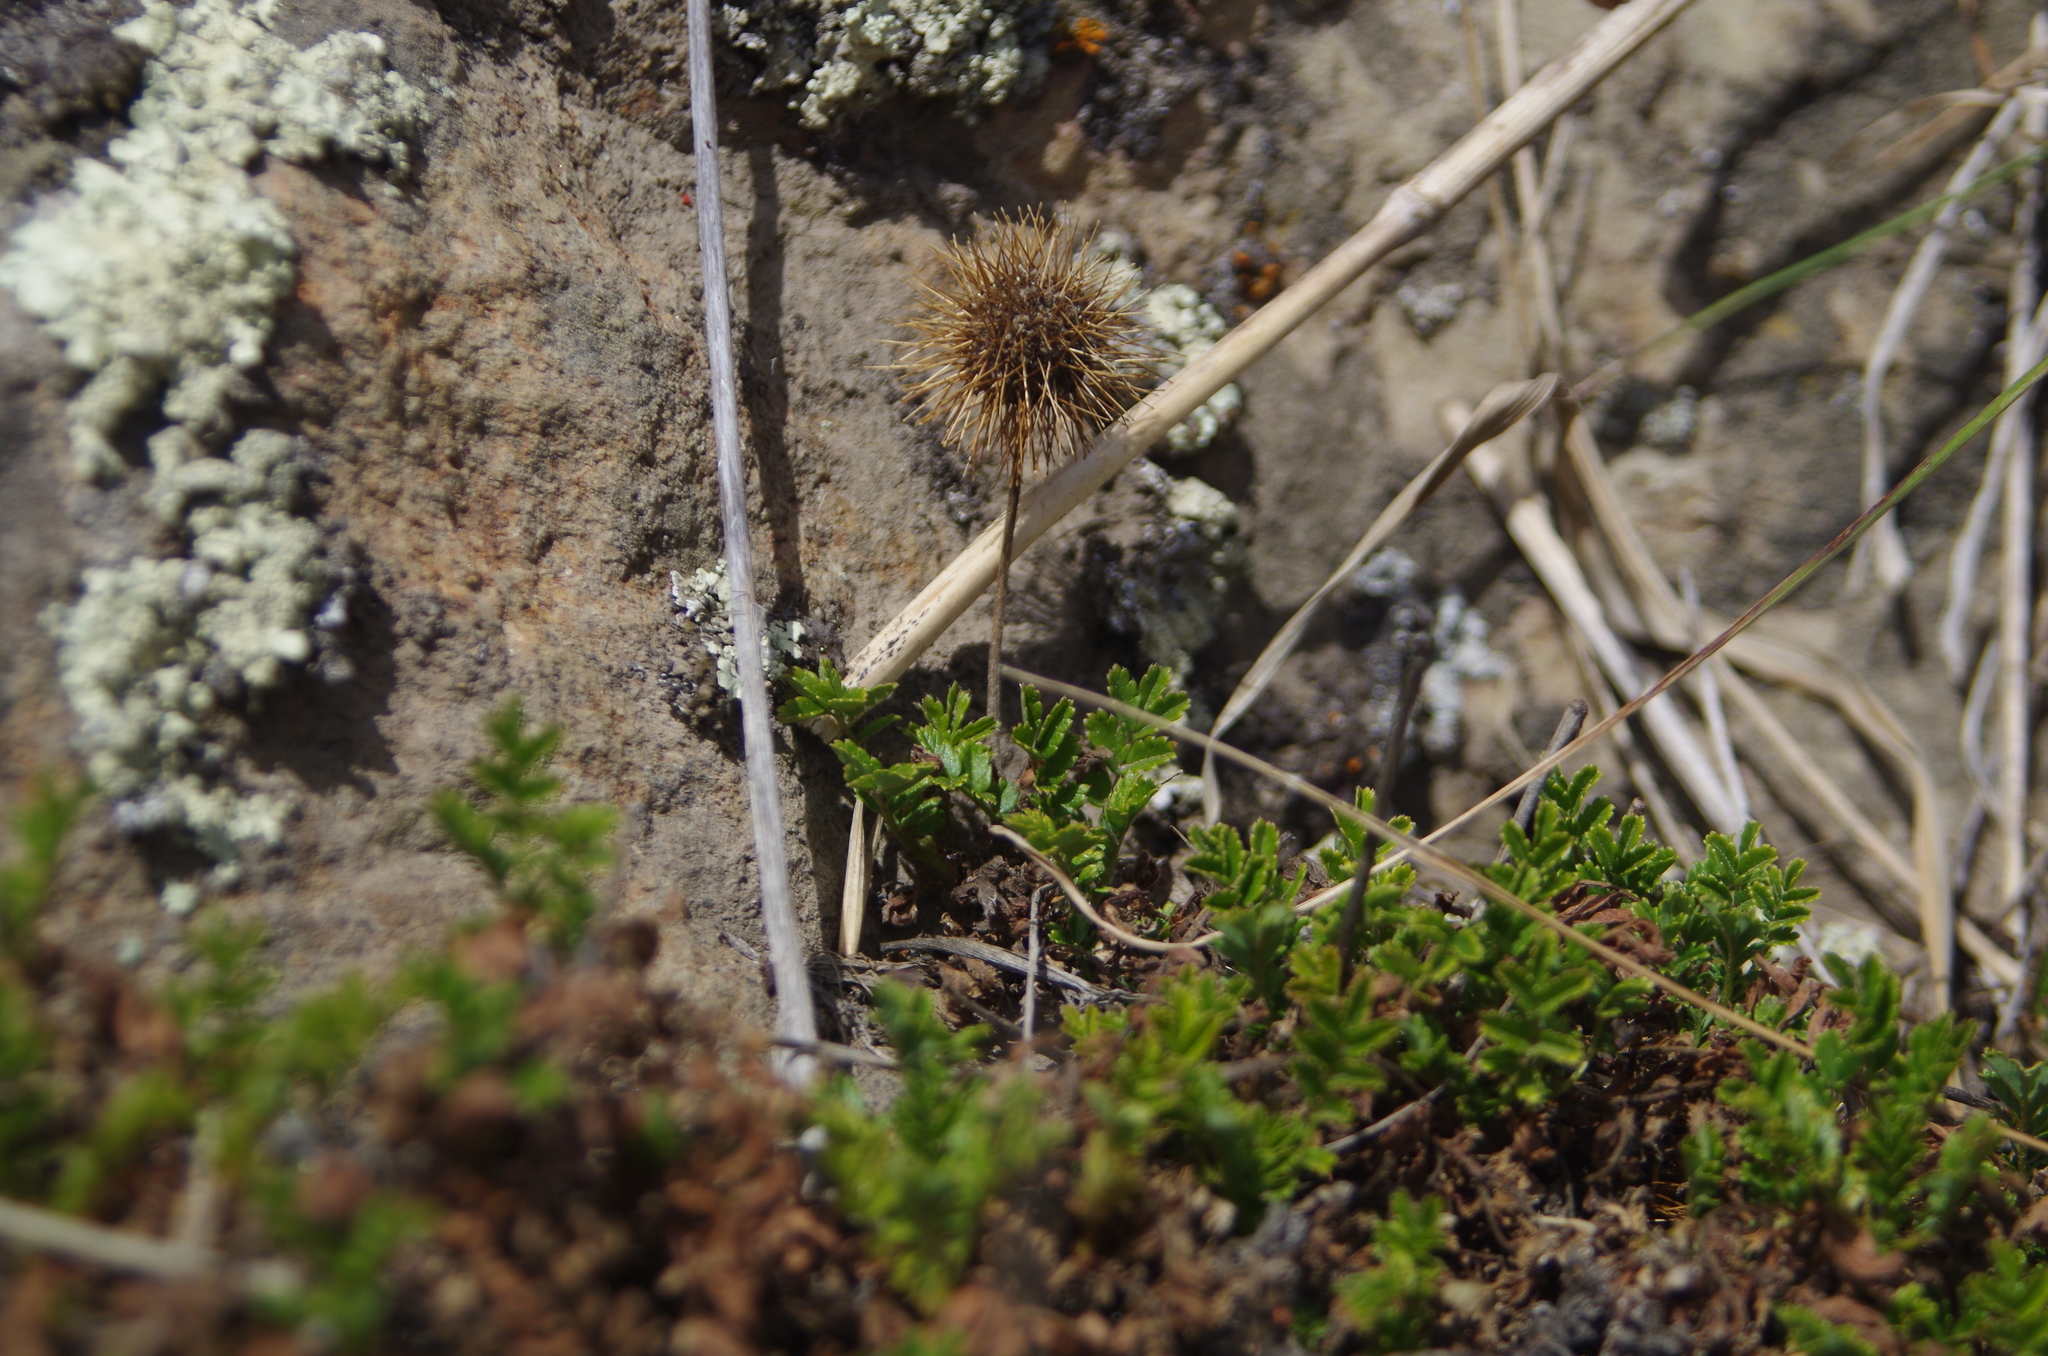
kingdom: Plantae
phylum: Tracheophyta
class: Magnoliopsida
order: Rosales
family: Rosaceae
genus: Acaena
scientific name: Acaena novae-zelandiae
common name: Pirri-pirri-bur
